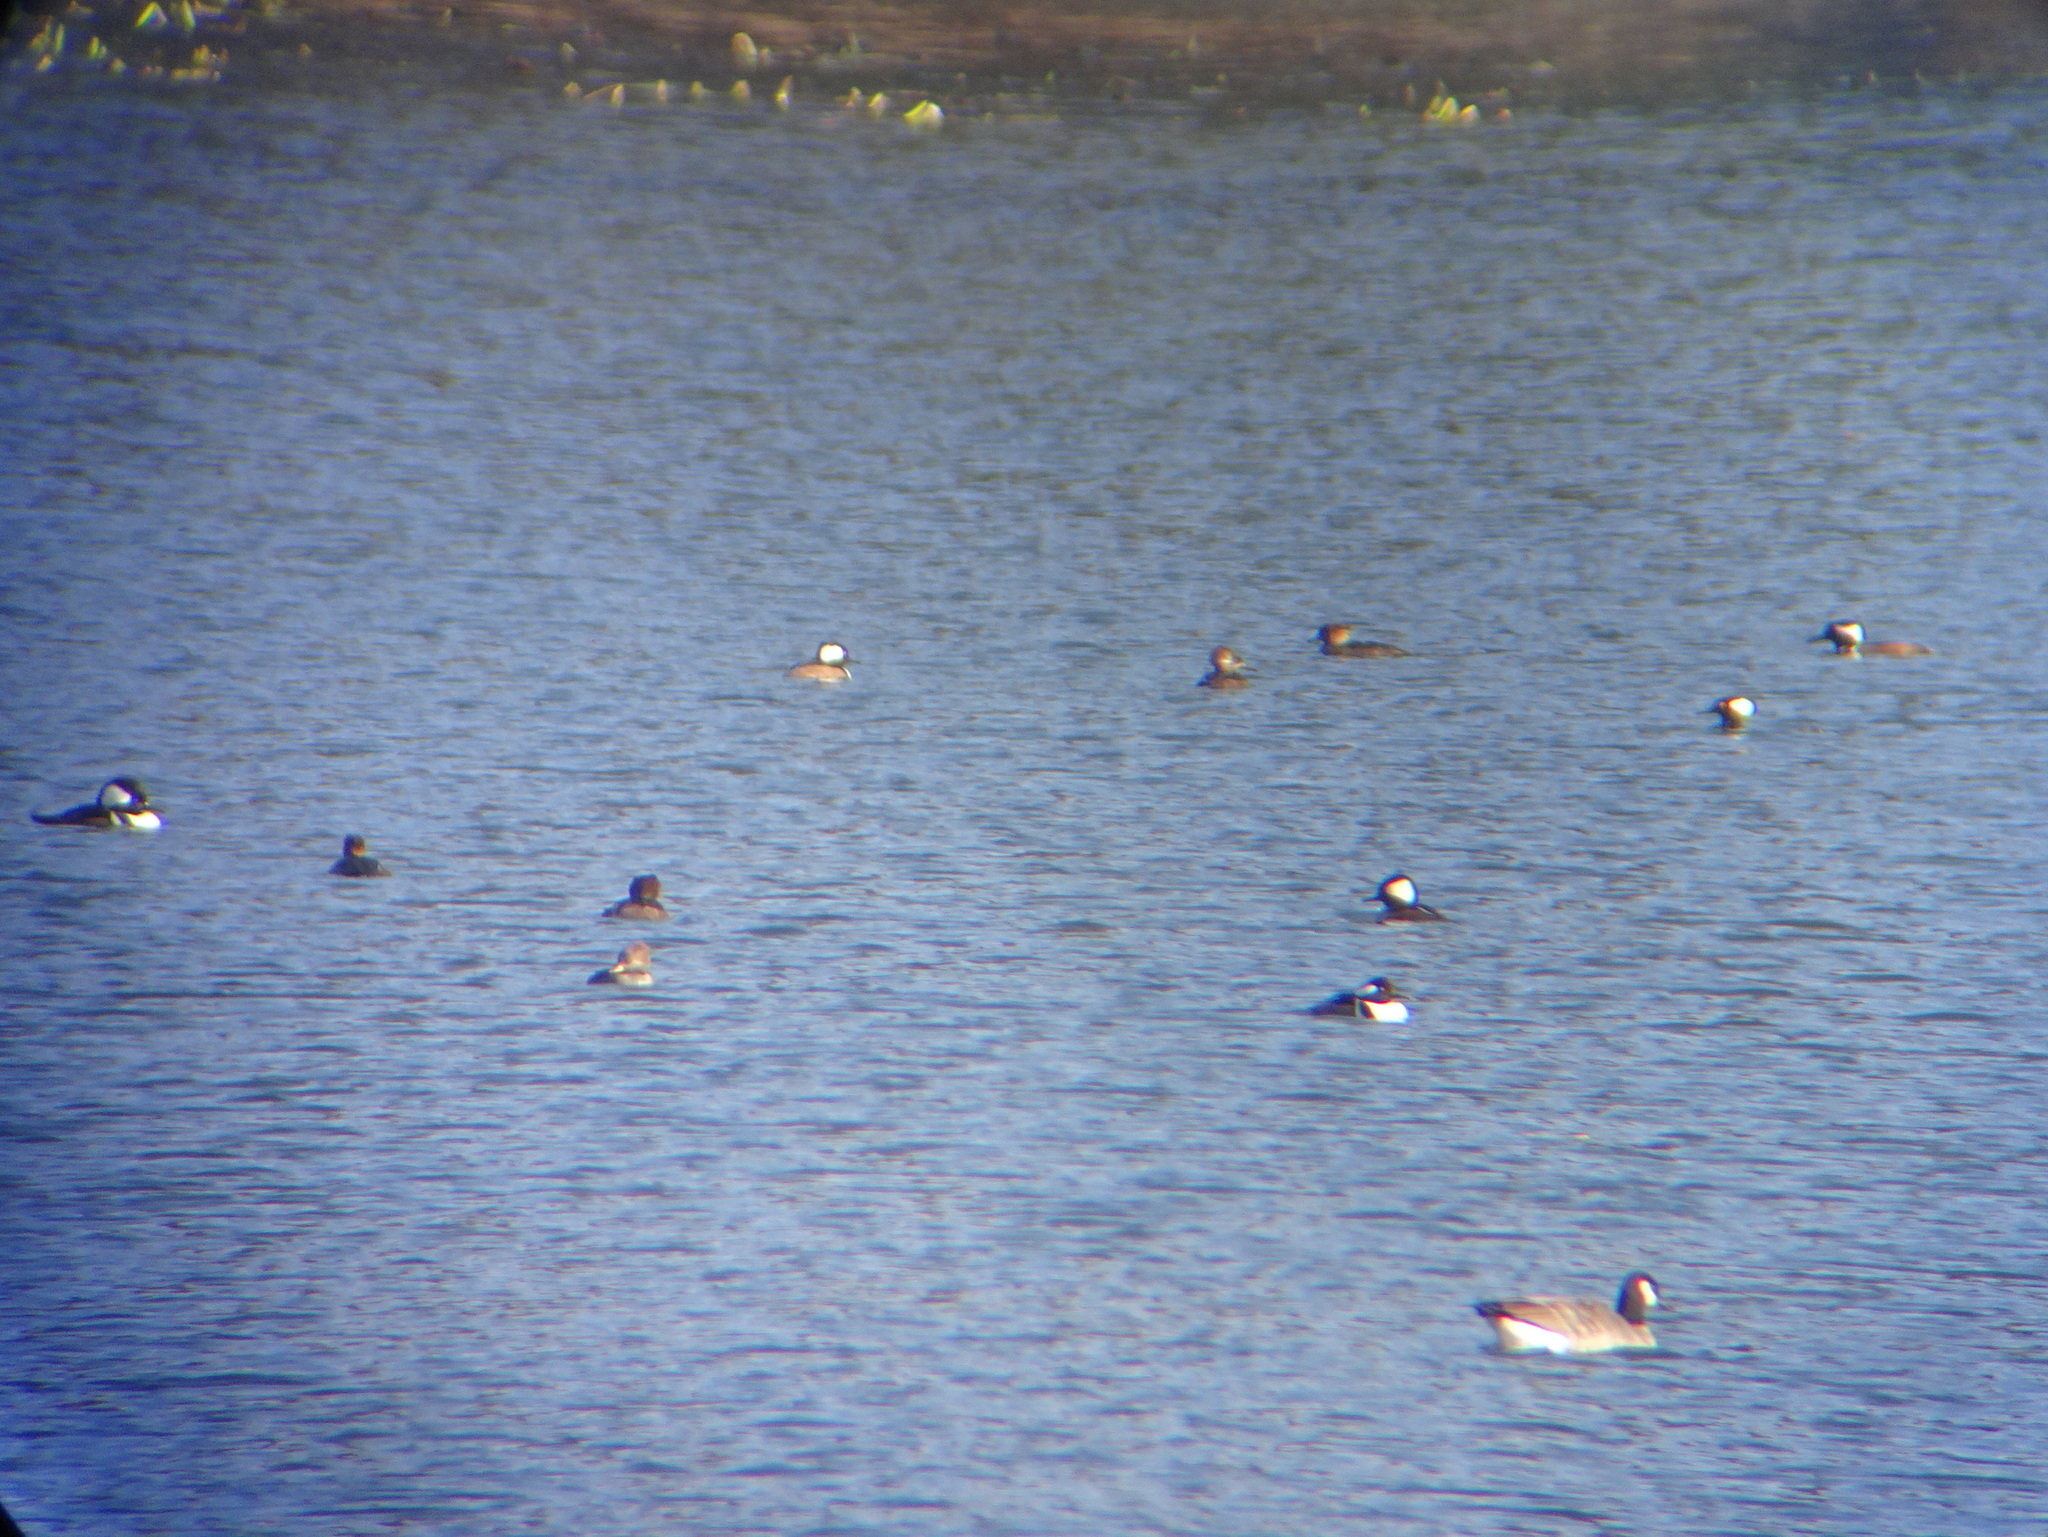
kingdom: Animalia
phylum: Chordata
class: Aves
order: Anseriformes
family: Anatidae
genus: Lophodytes
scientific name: Lophodytes cucullatus
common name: Hooded merganser
